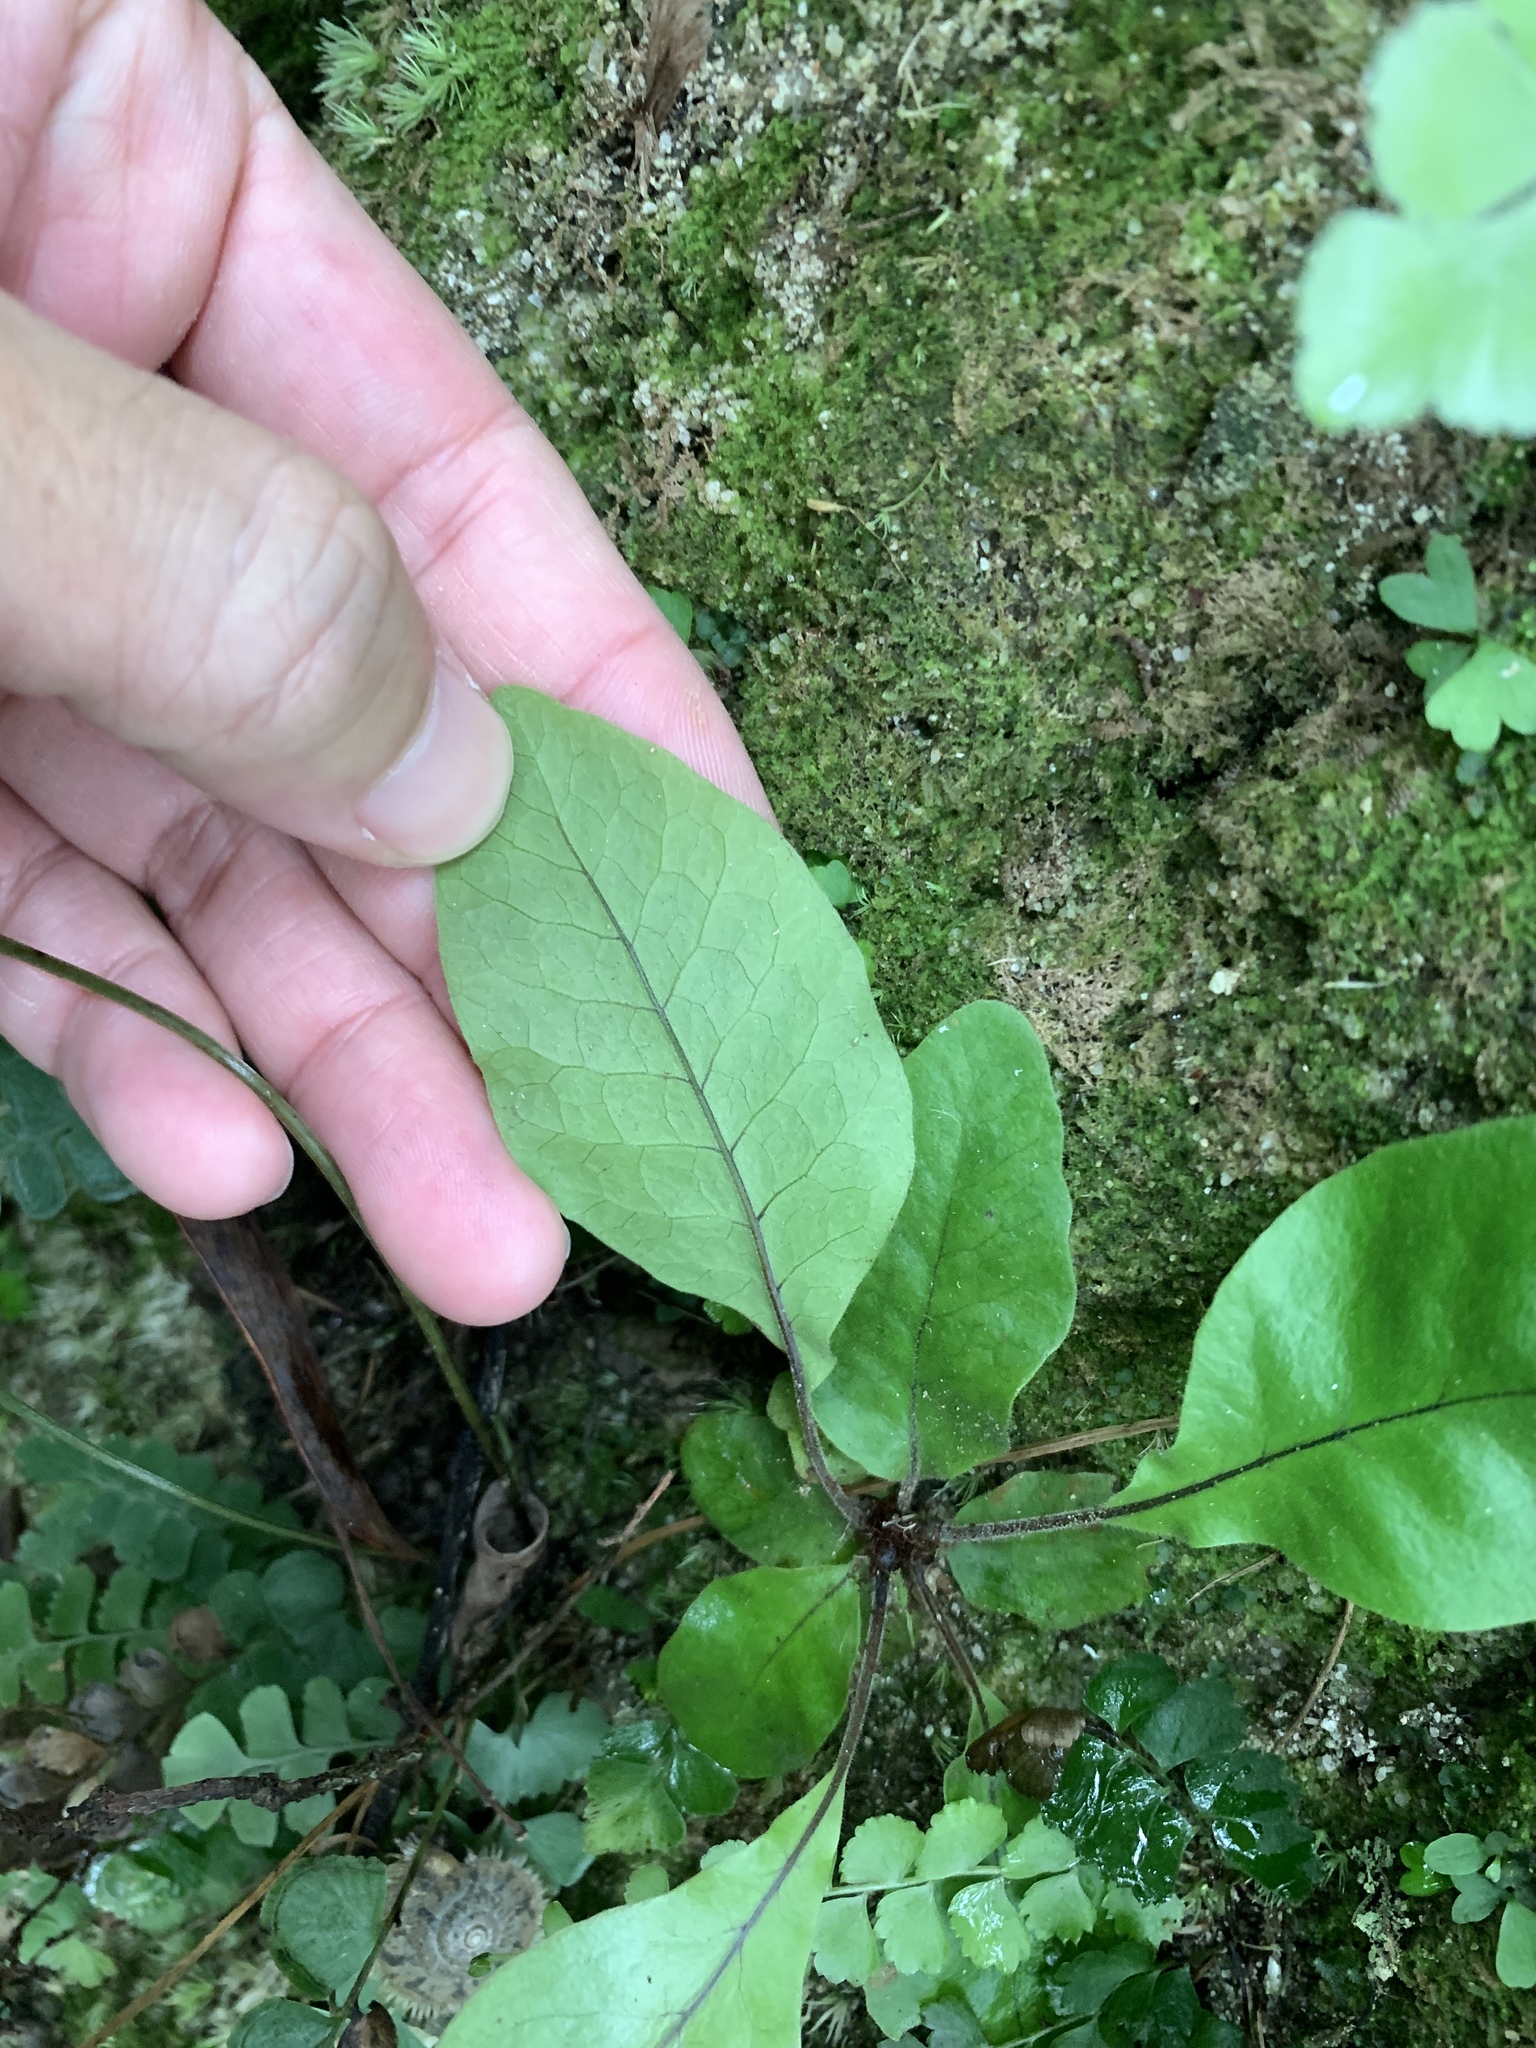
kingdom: Plantae
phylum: Tracheophyta
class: Polypodiopsida
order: Polypodiales
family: Tectariaceae
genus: Tectaria
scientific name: Tectaria harlandii
